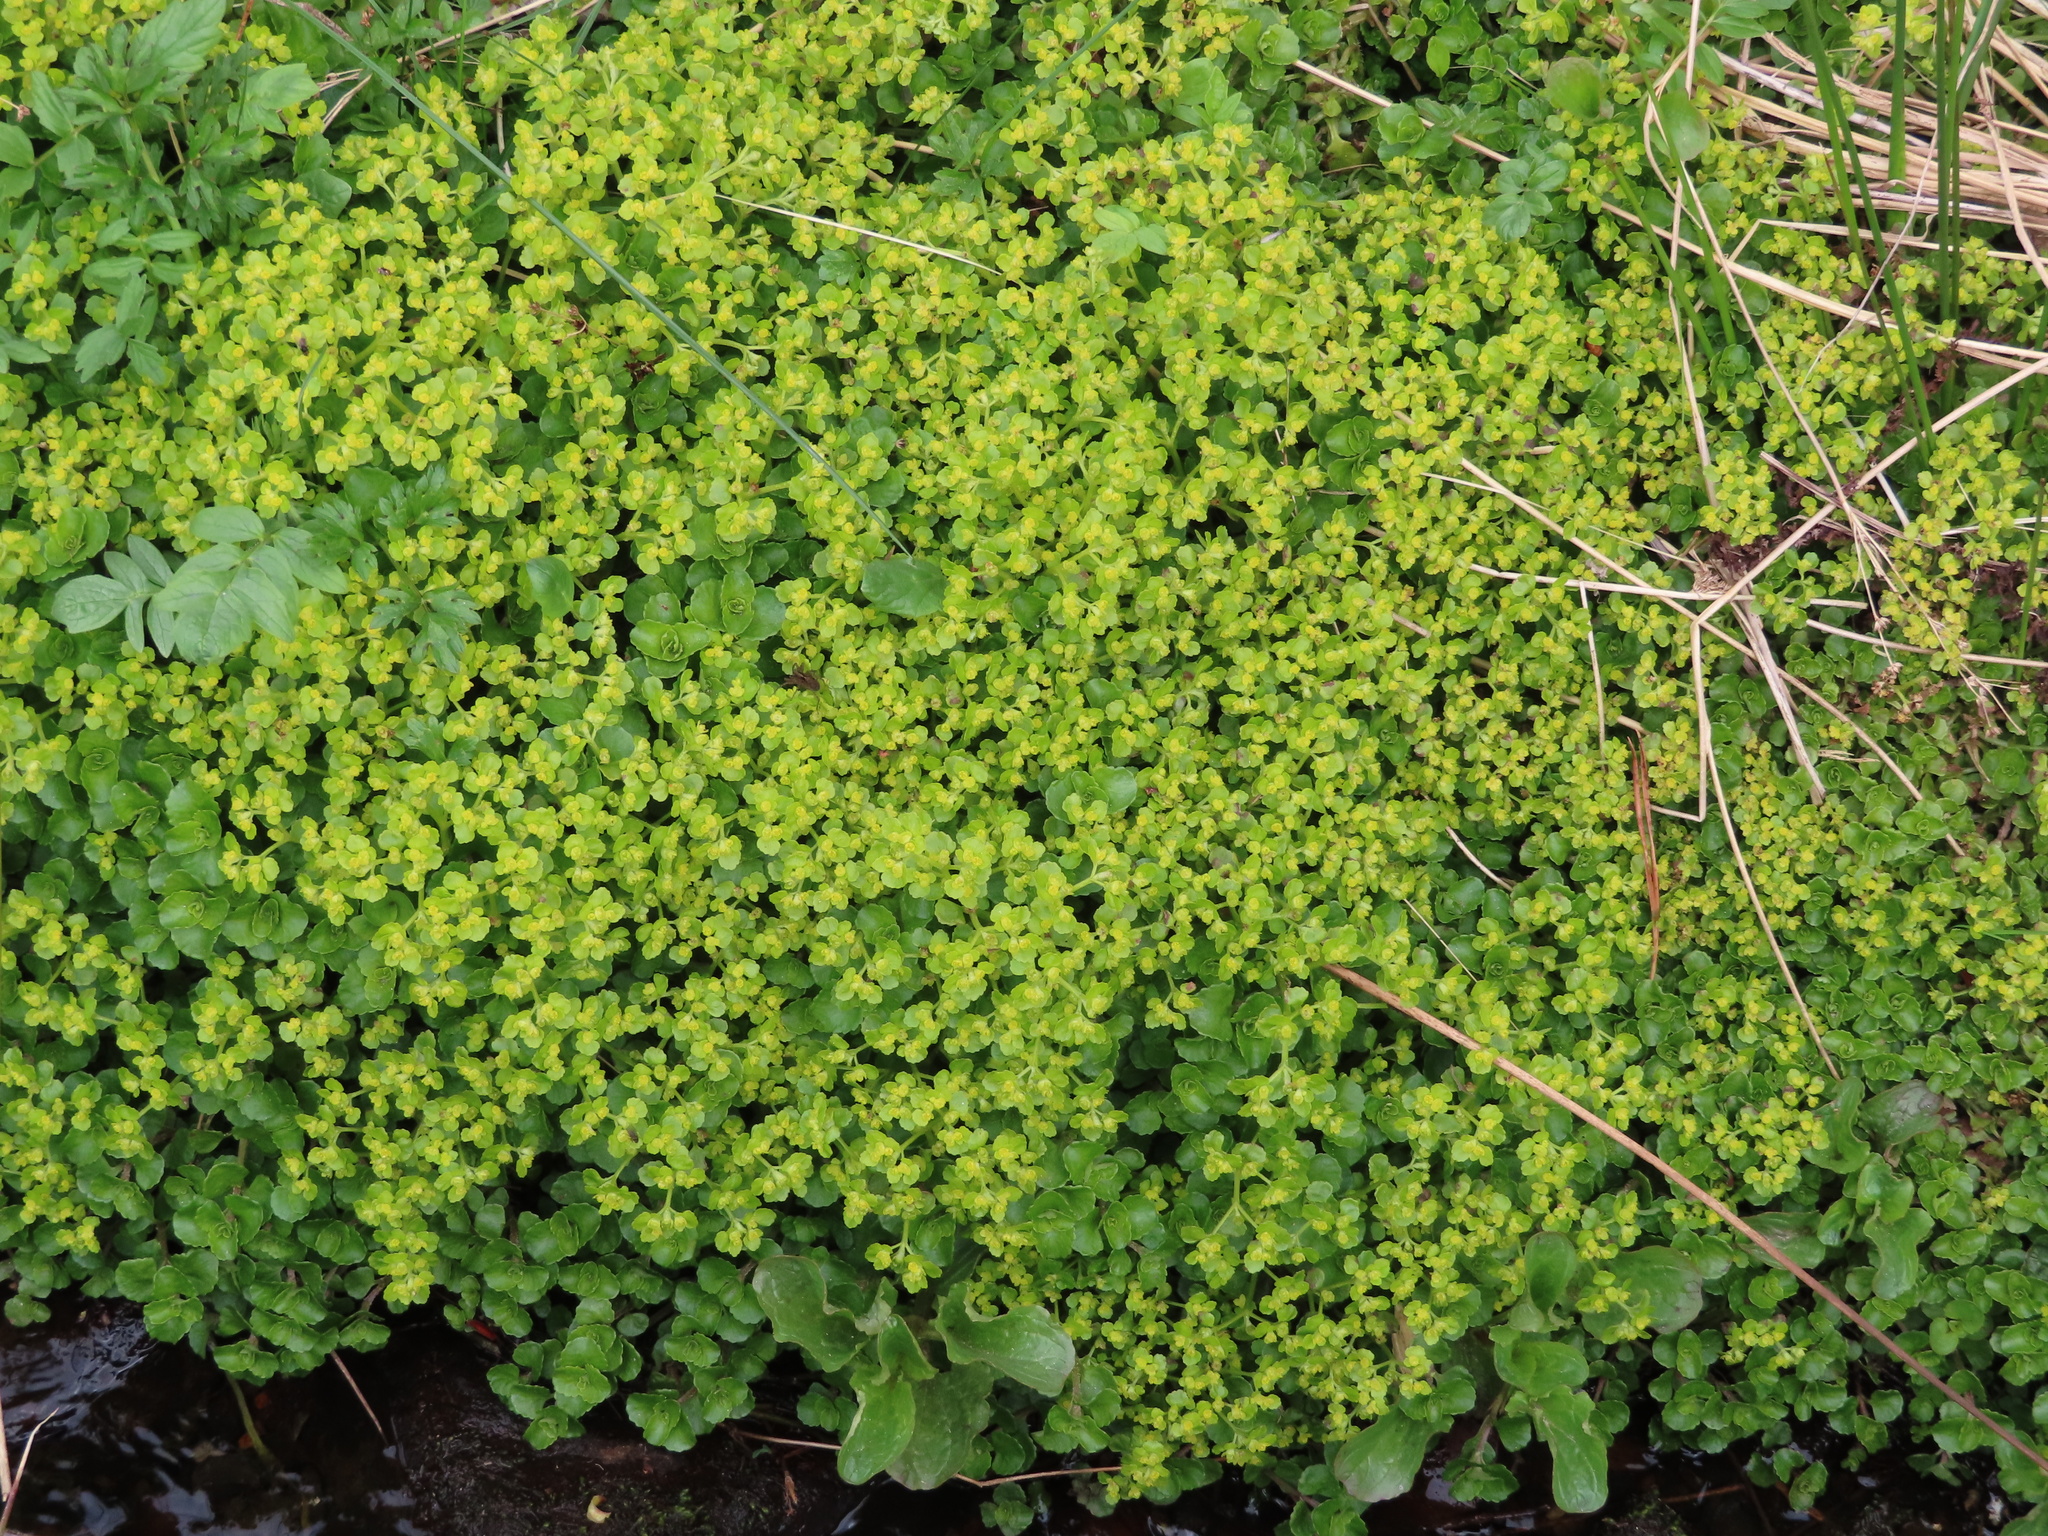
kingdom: Plantae
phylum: Tracheophyta
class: Magnoliopsida
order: Saxifragales
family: Saxifragaceae
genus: Chrysosplenium
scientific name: Chrysosplenium oppositifolium
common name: Opposite-leaved golden-saxifrage
